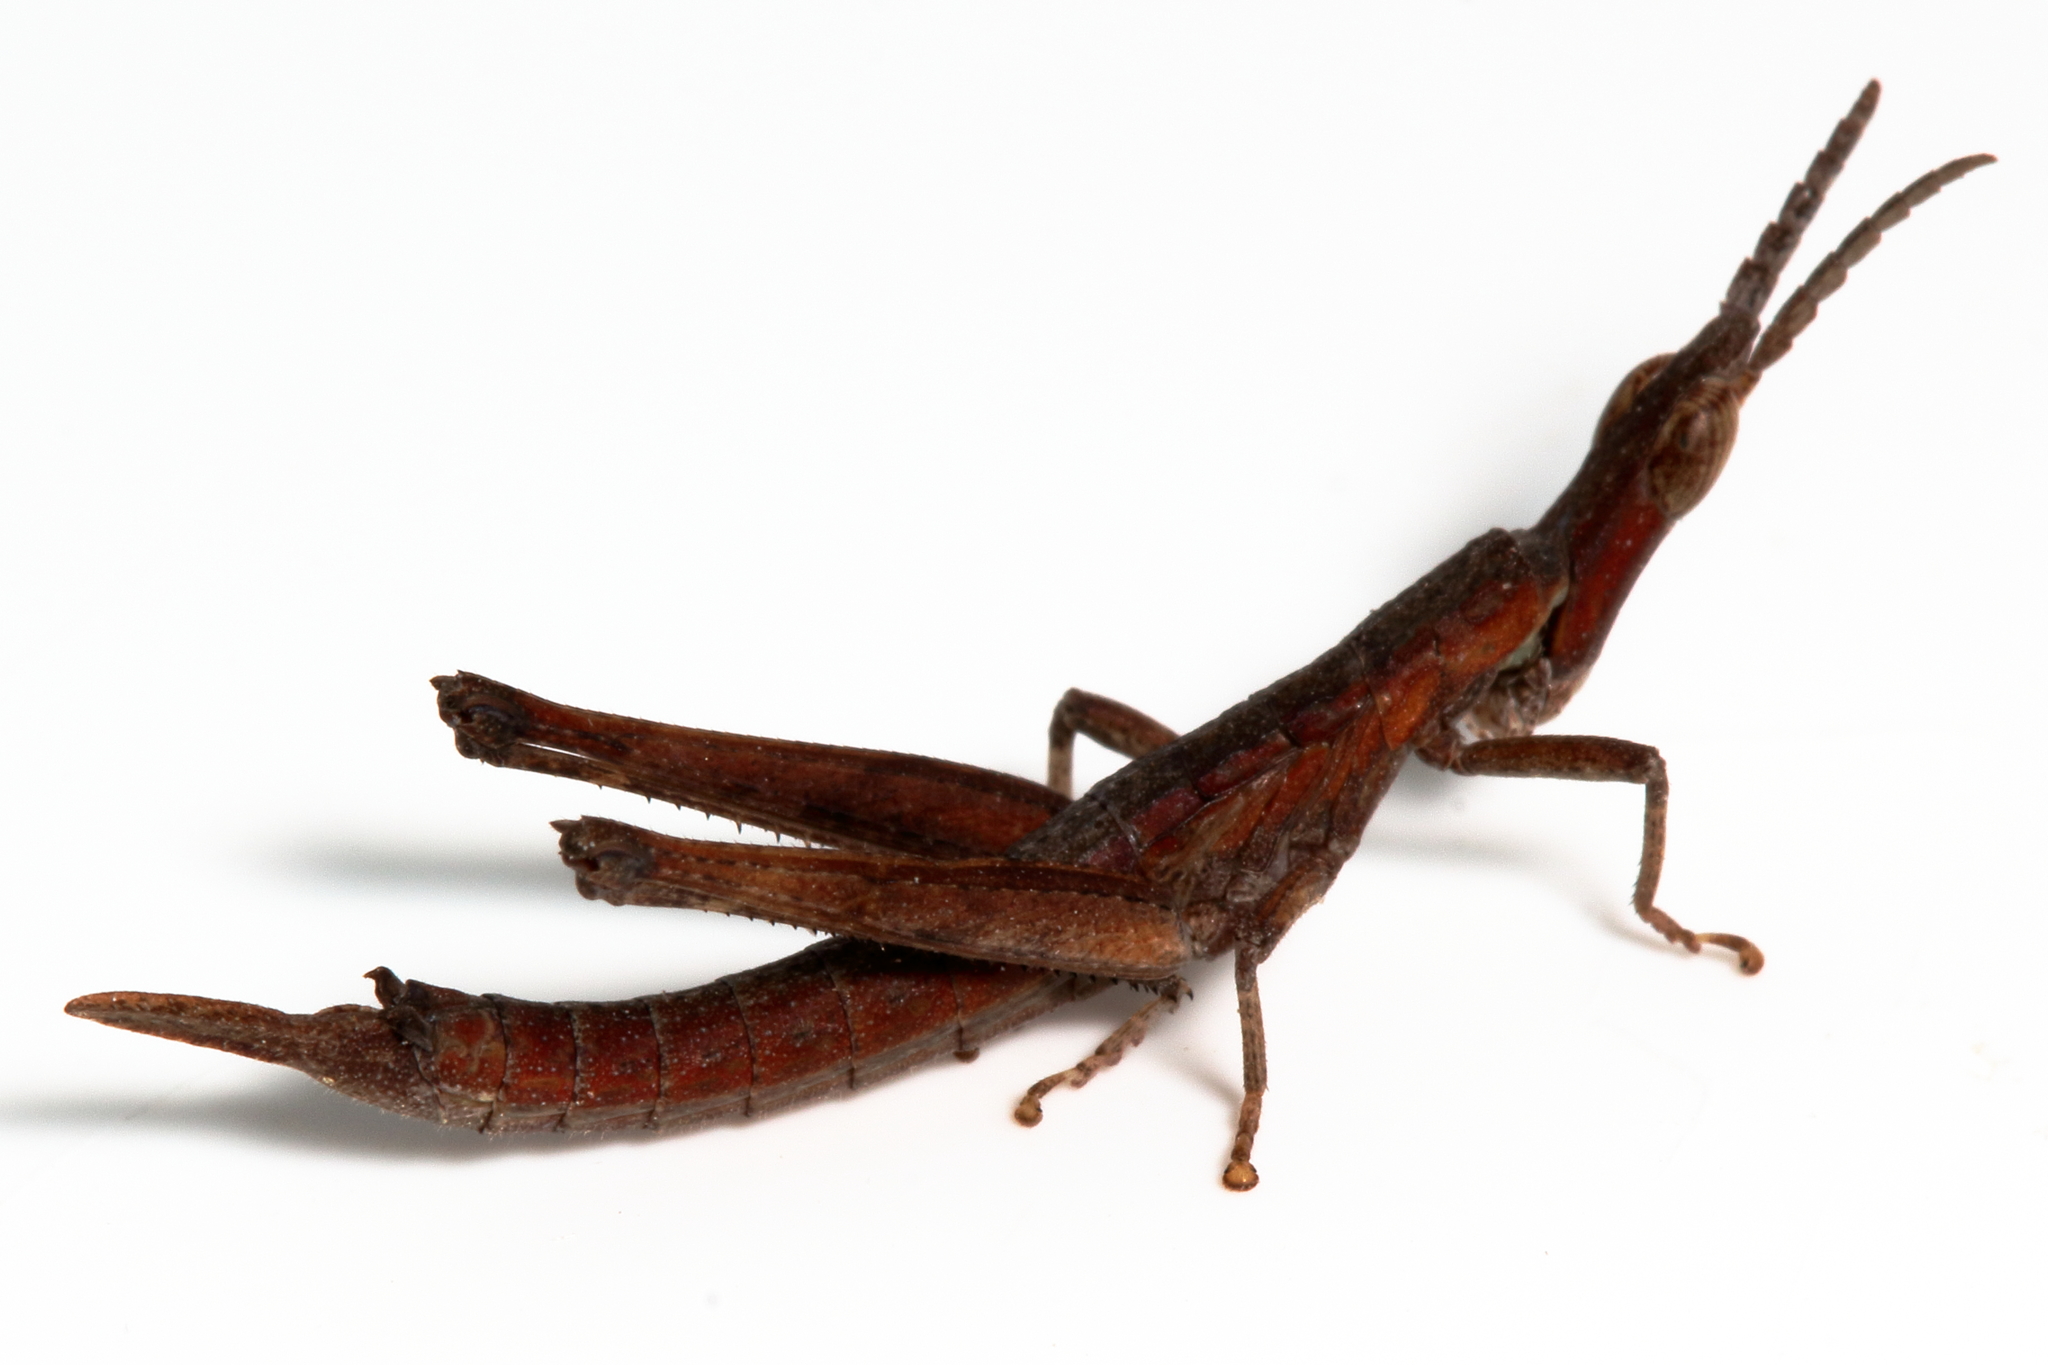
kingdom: Animalia
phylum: Arthropoda
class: Insecta
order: Orthoptera
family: Morabidae
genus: Vandiemenella
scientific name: Vandiemenella viatica
